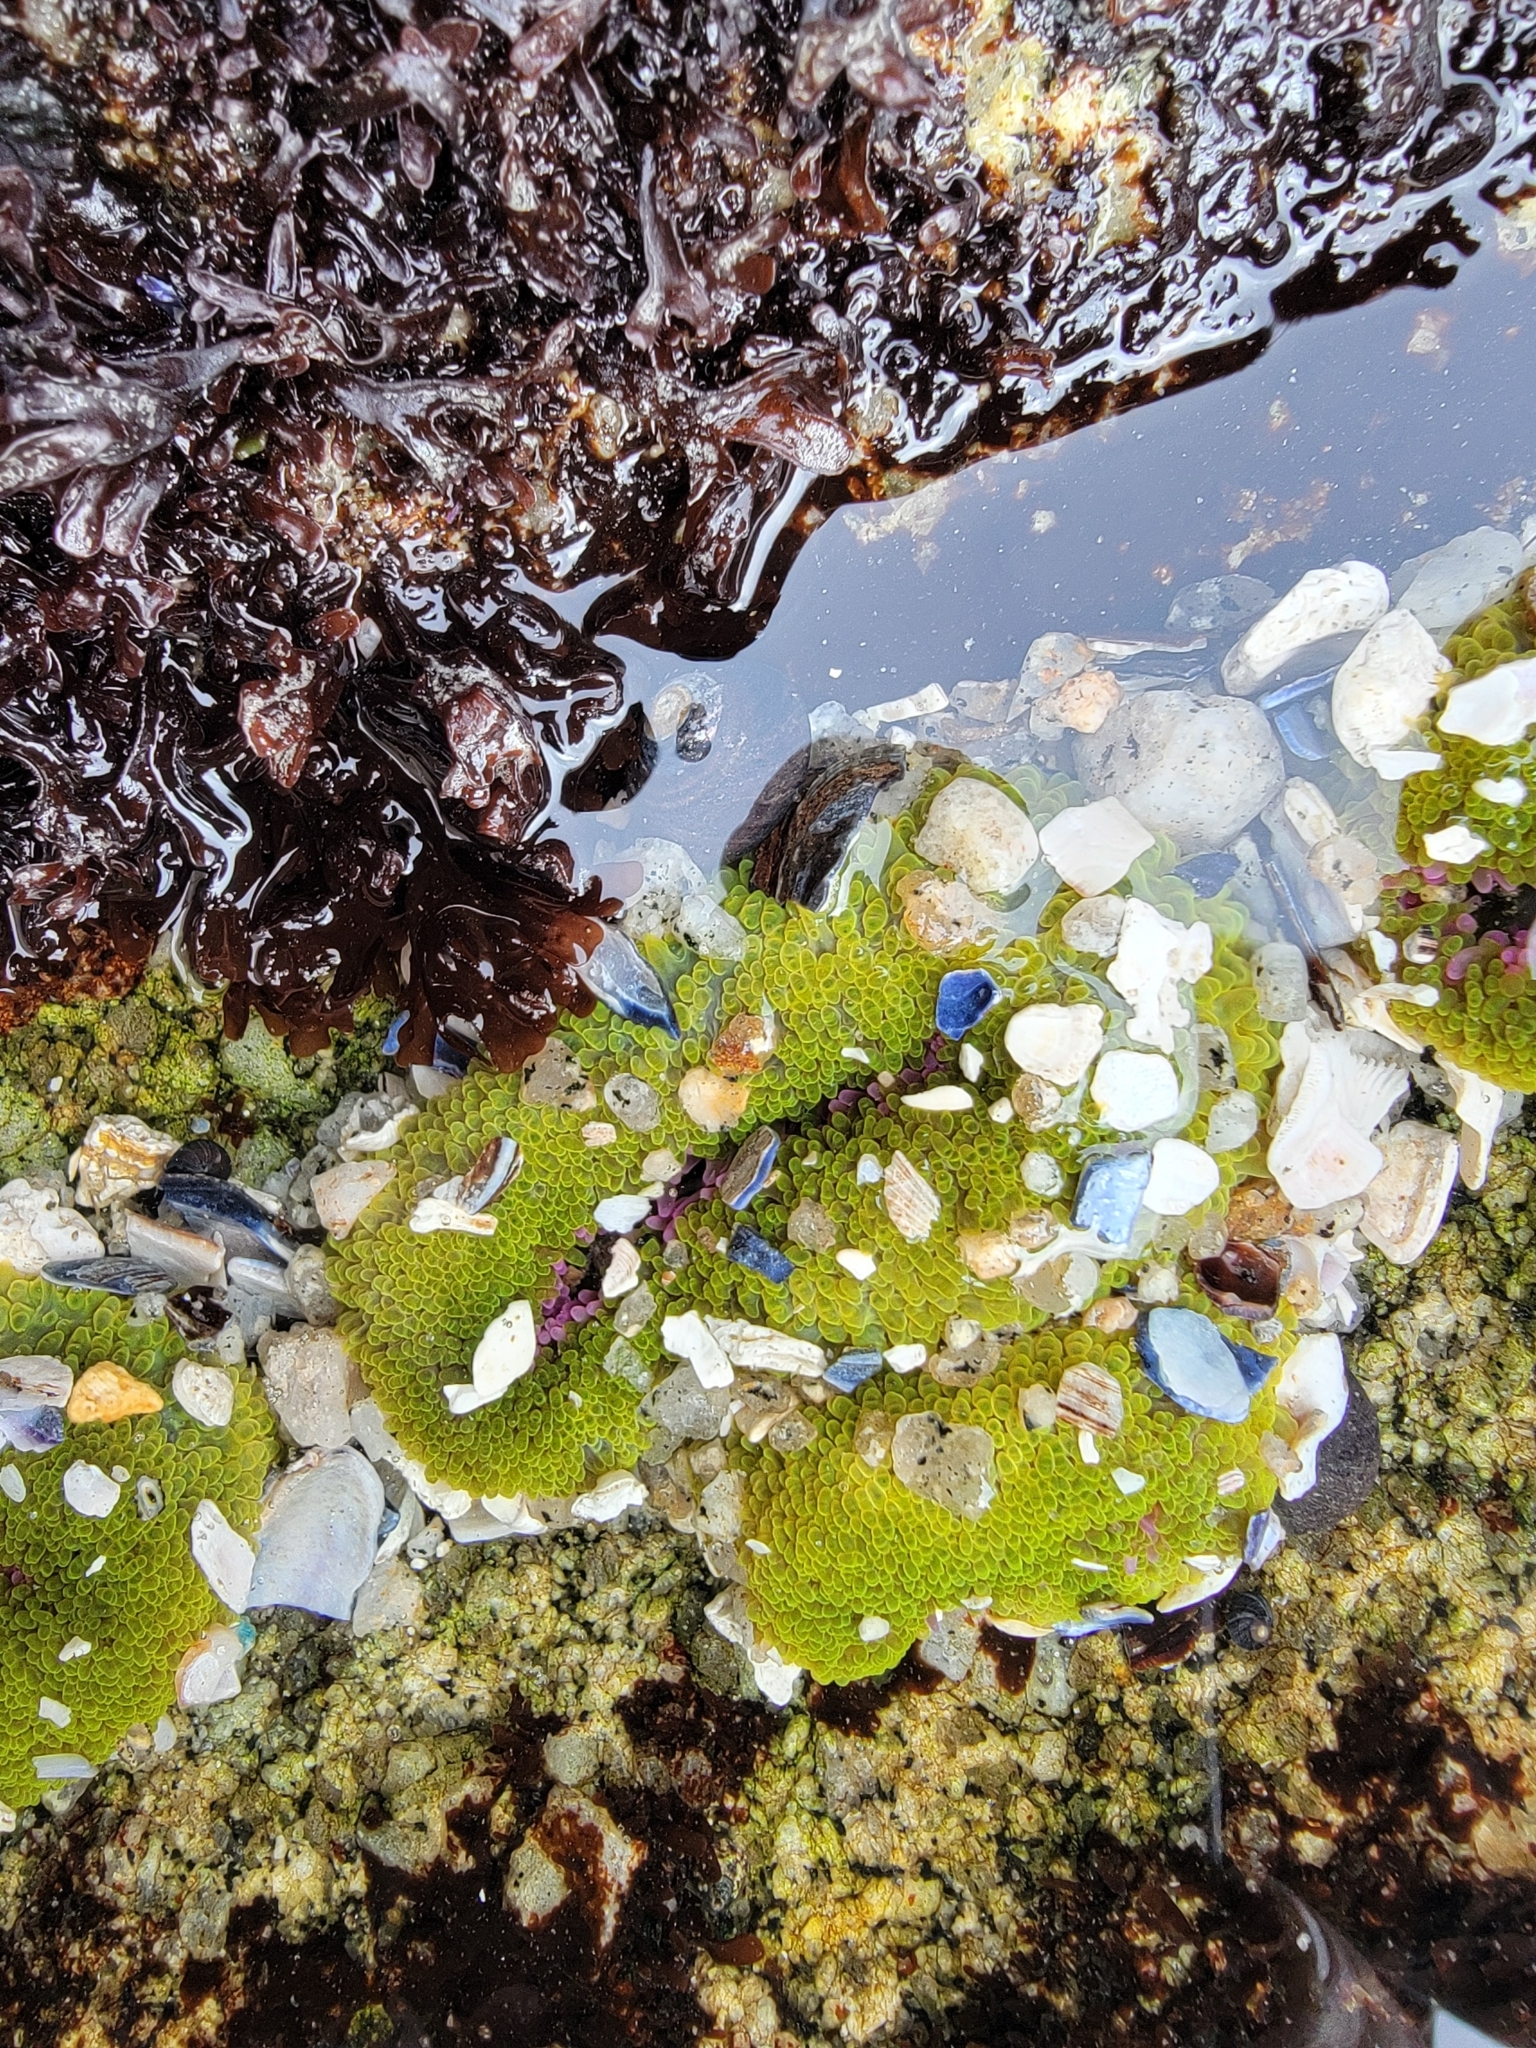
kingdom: Animalia
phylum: Cnidaria
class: Anthozoa
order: Actiniaria
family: Actiniidae
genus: Anthopleura
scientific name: Anthopleura elegantissima
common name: Clonal anemone
